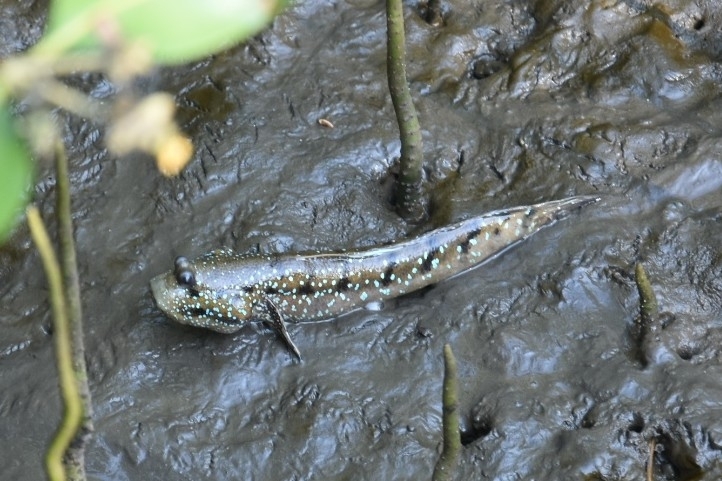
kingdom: Animalia
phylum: Chordata
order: Perciformes
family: Gobiidae
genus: Boleophthalmus
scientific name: Boleophthalmus boddarti
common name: Boddart's goggle-eyed goby
